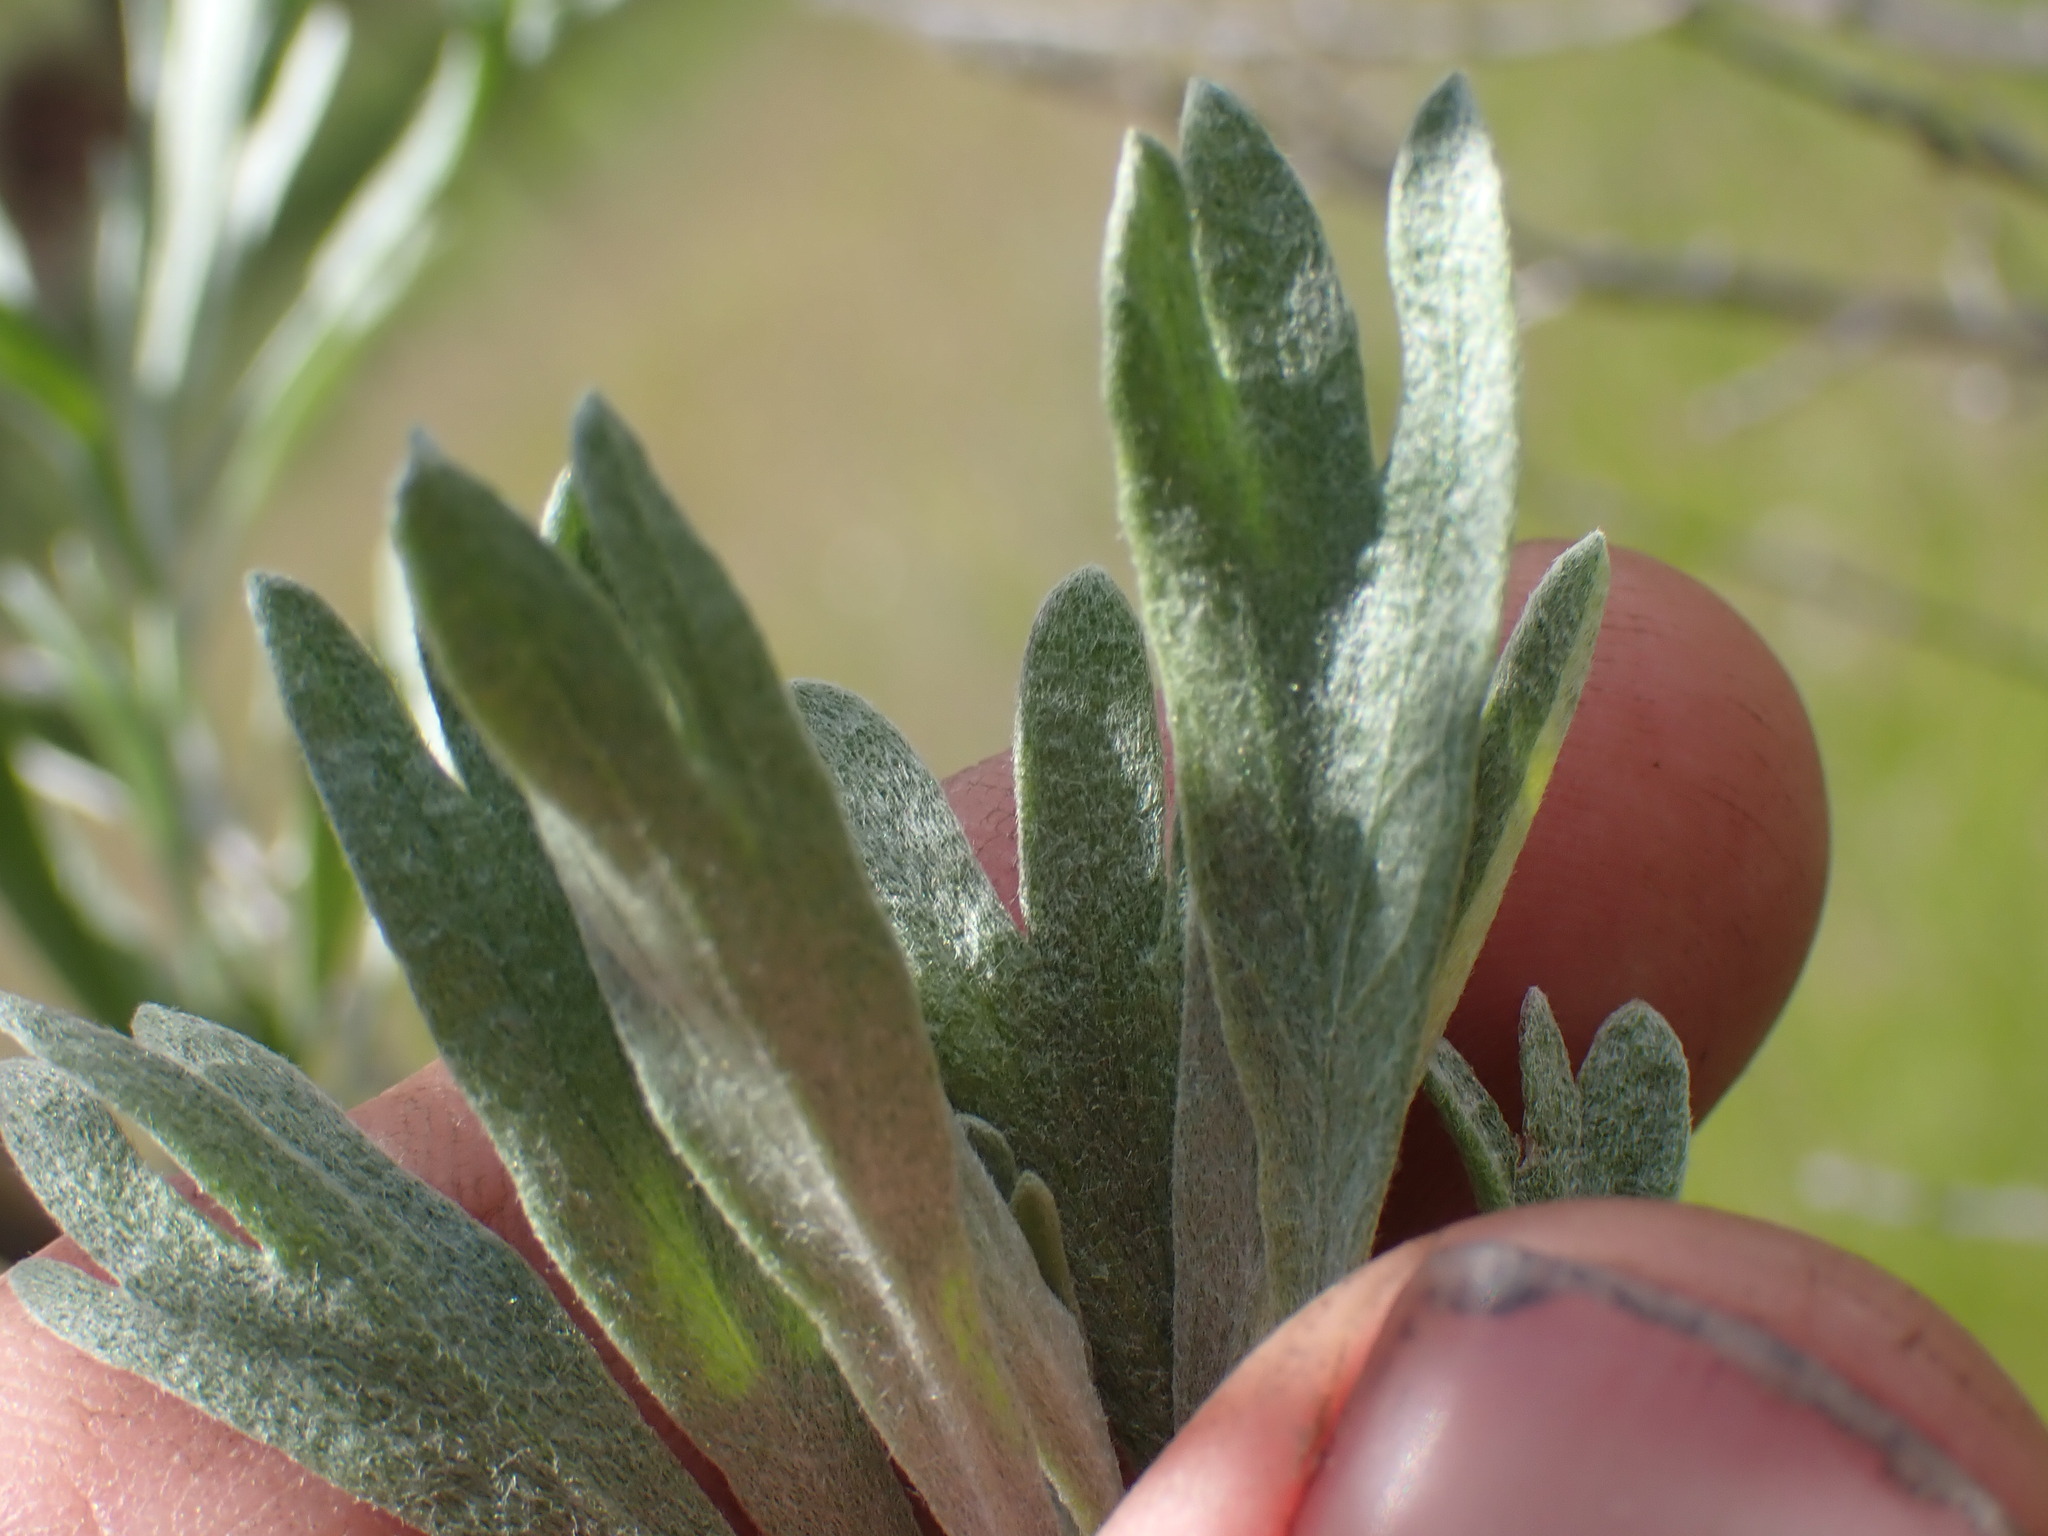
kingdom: Plantae
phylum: Tracheophyta
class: Magnoliopsida
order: Asterales
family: Asteraceae
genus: Artemisia
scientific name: Artemisia tridentata
